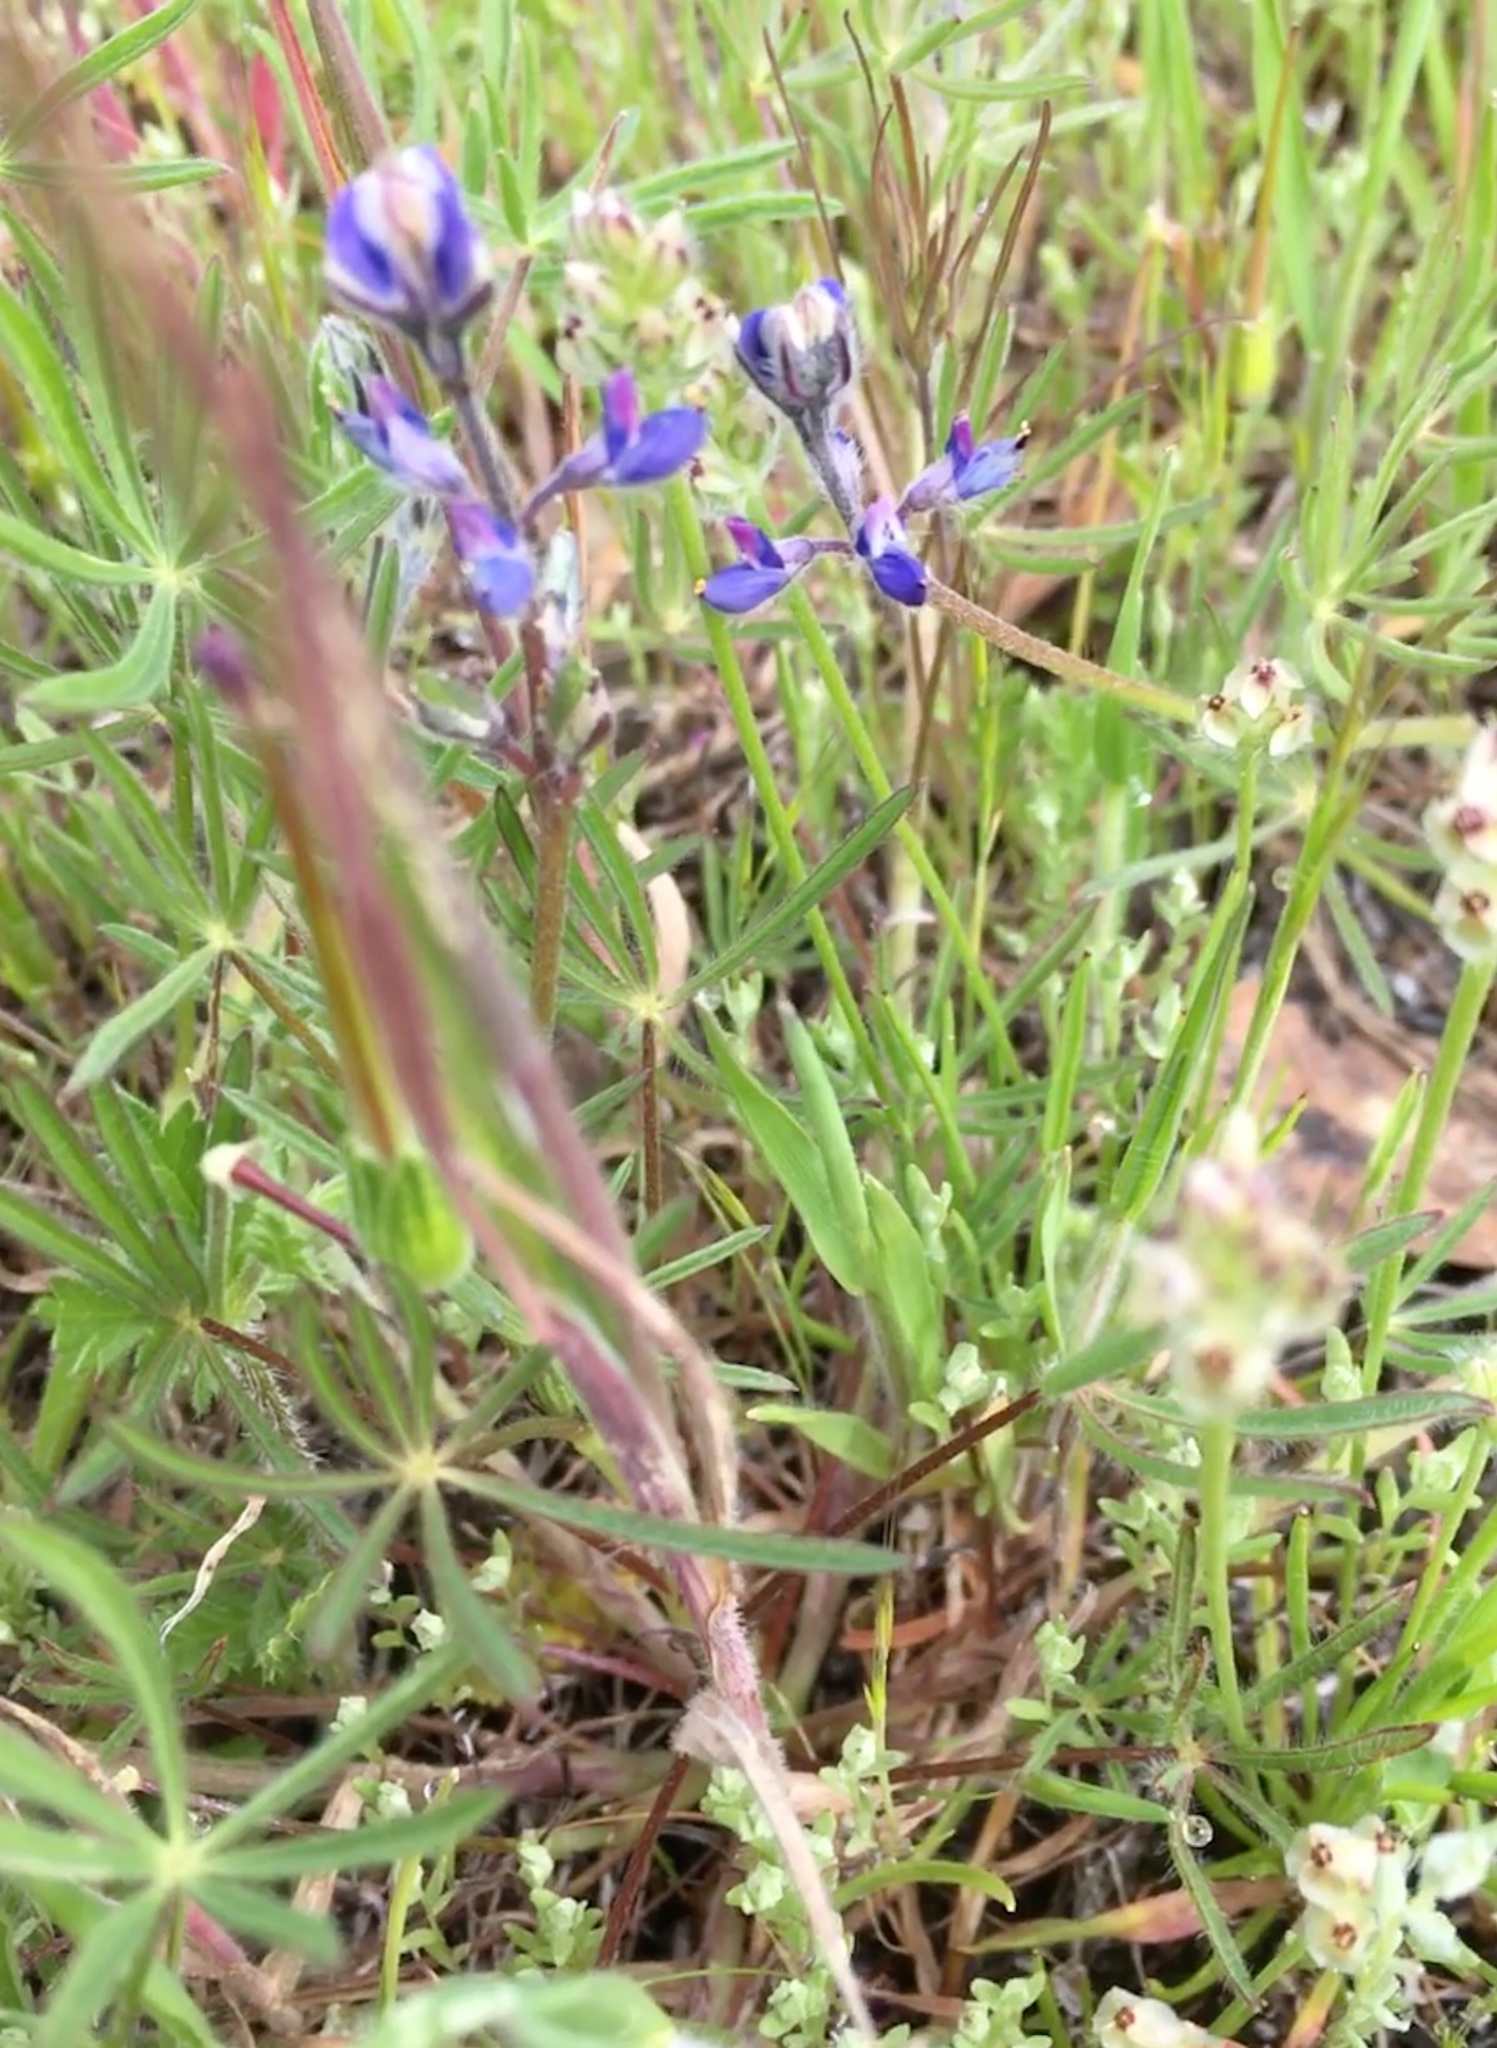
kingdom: Plantae
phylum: Tracheophyta
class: Magnoliopsida
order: Fabales
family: Fabaceae
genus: Lupinus
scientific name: Lupinus bicolor
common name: Miniature lupine
